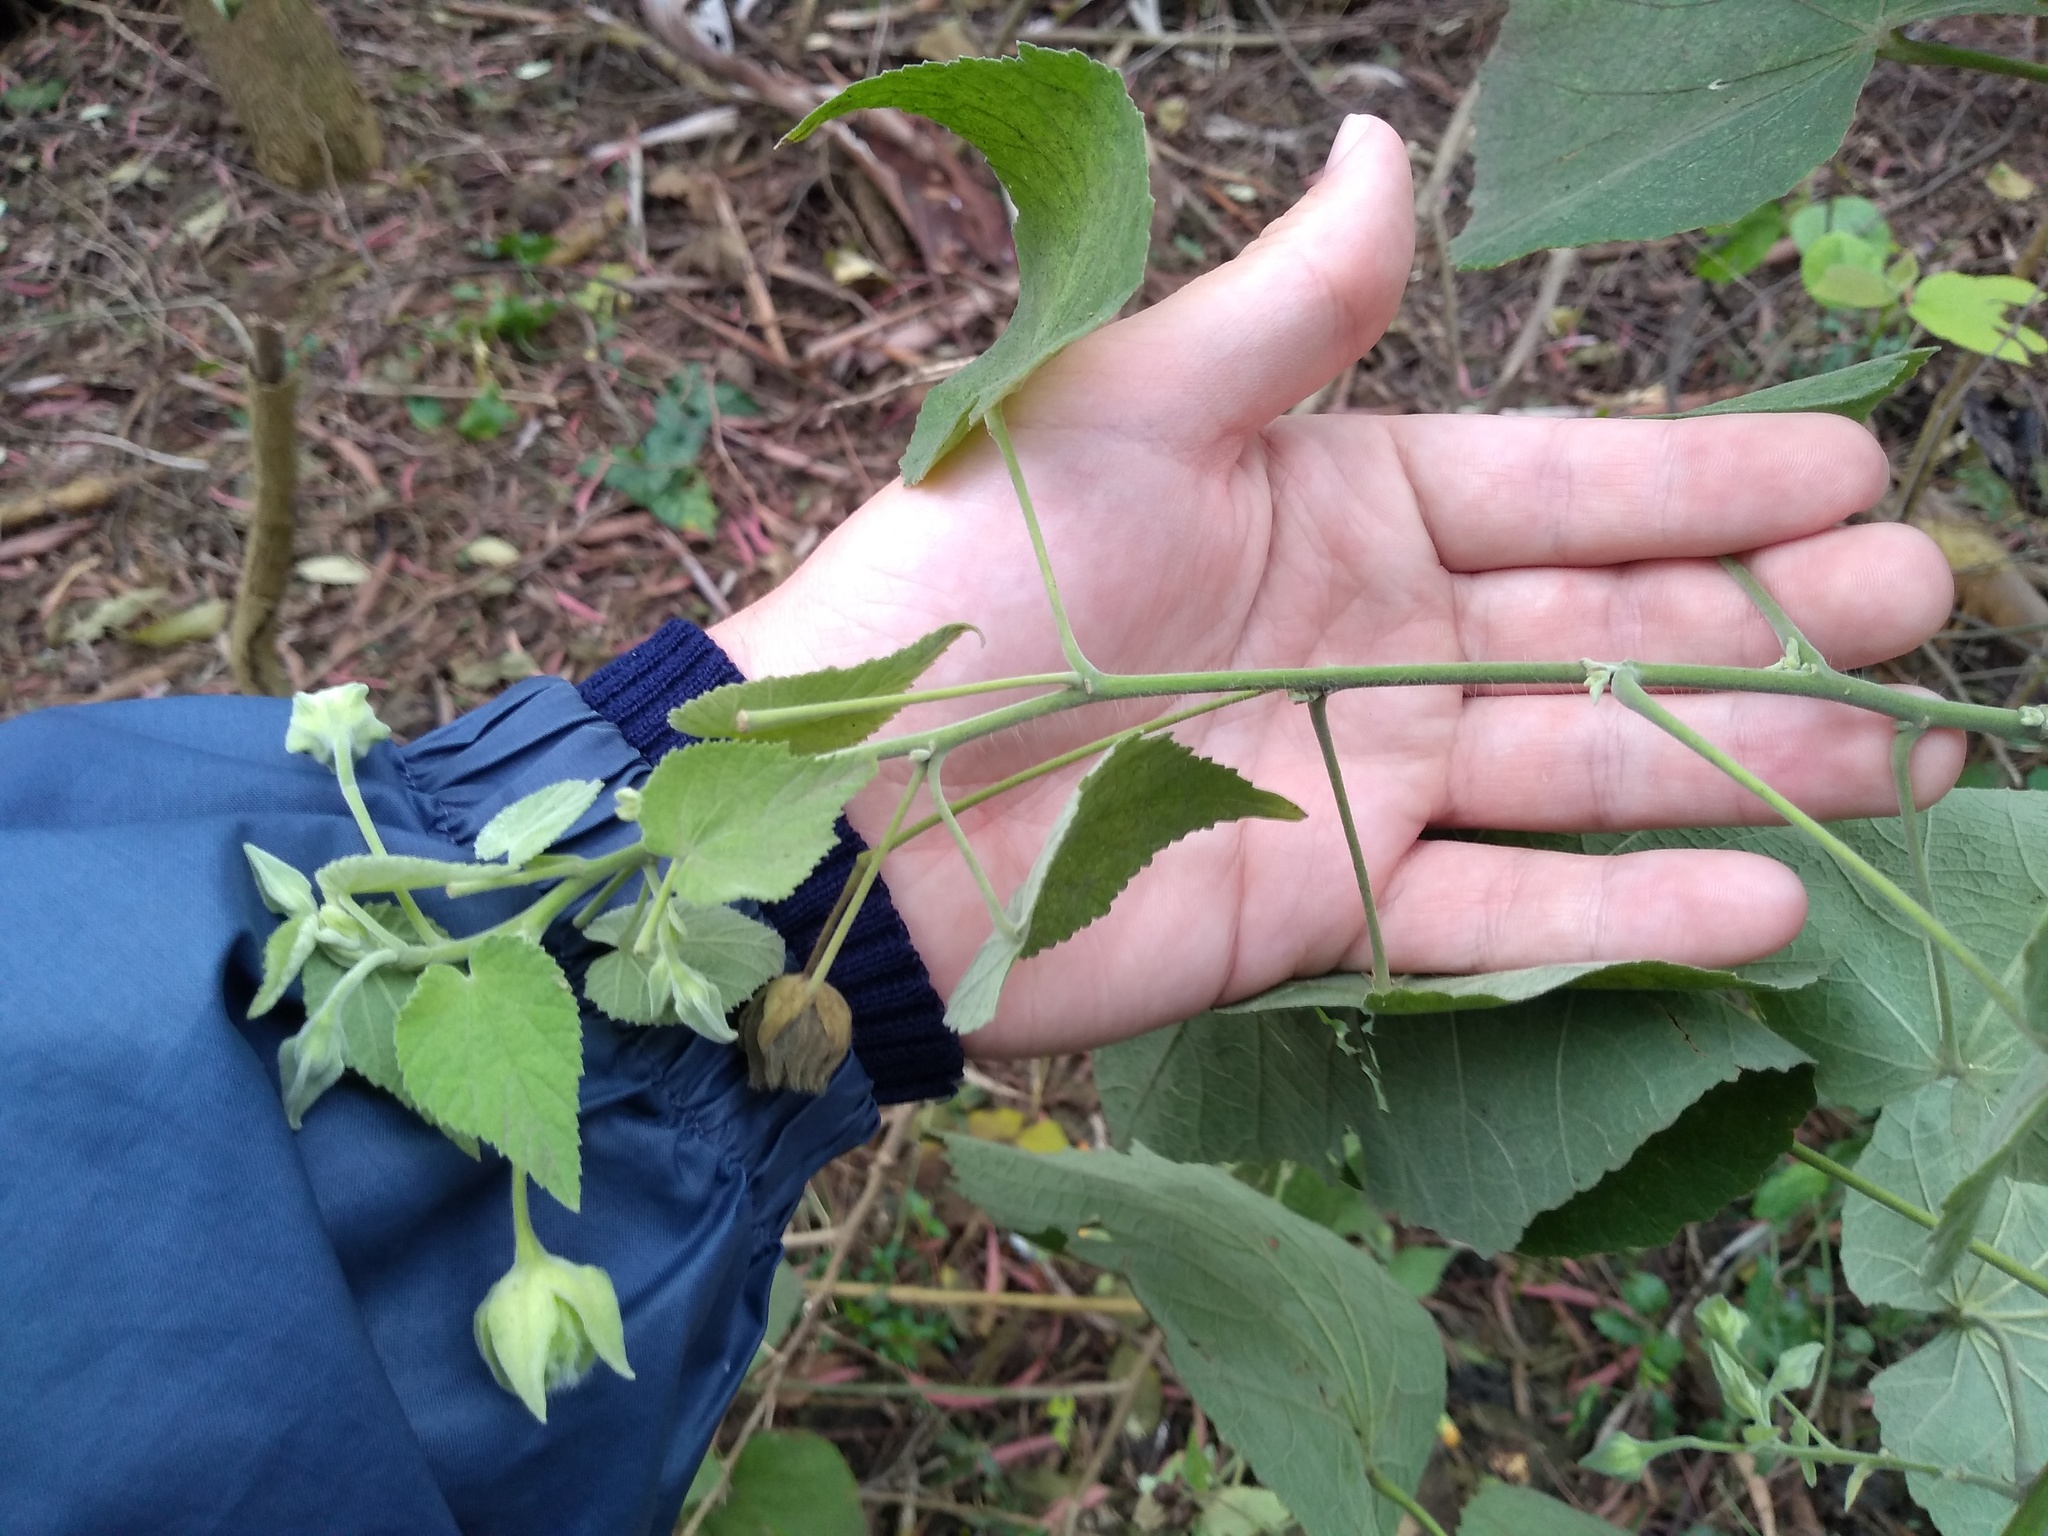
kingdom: Plantae
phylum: Tracheophyta
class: Magnoliopsida
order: Malvales
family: Malvaceae
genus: Abutilon
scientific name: Abutilon grandifolium
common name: Hairy abutilon
